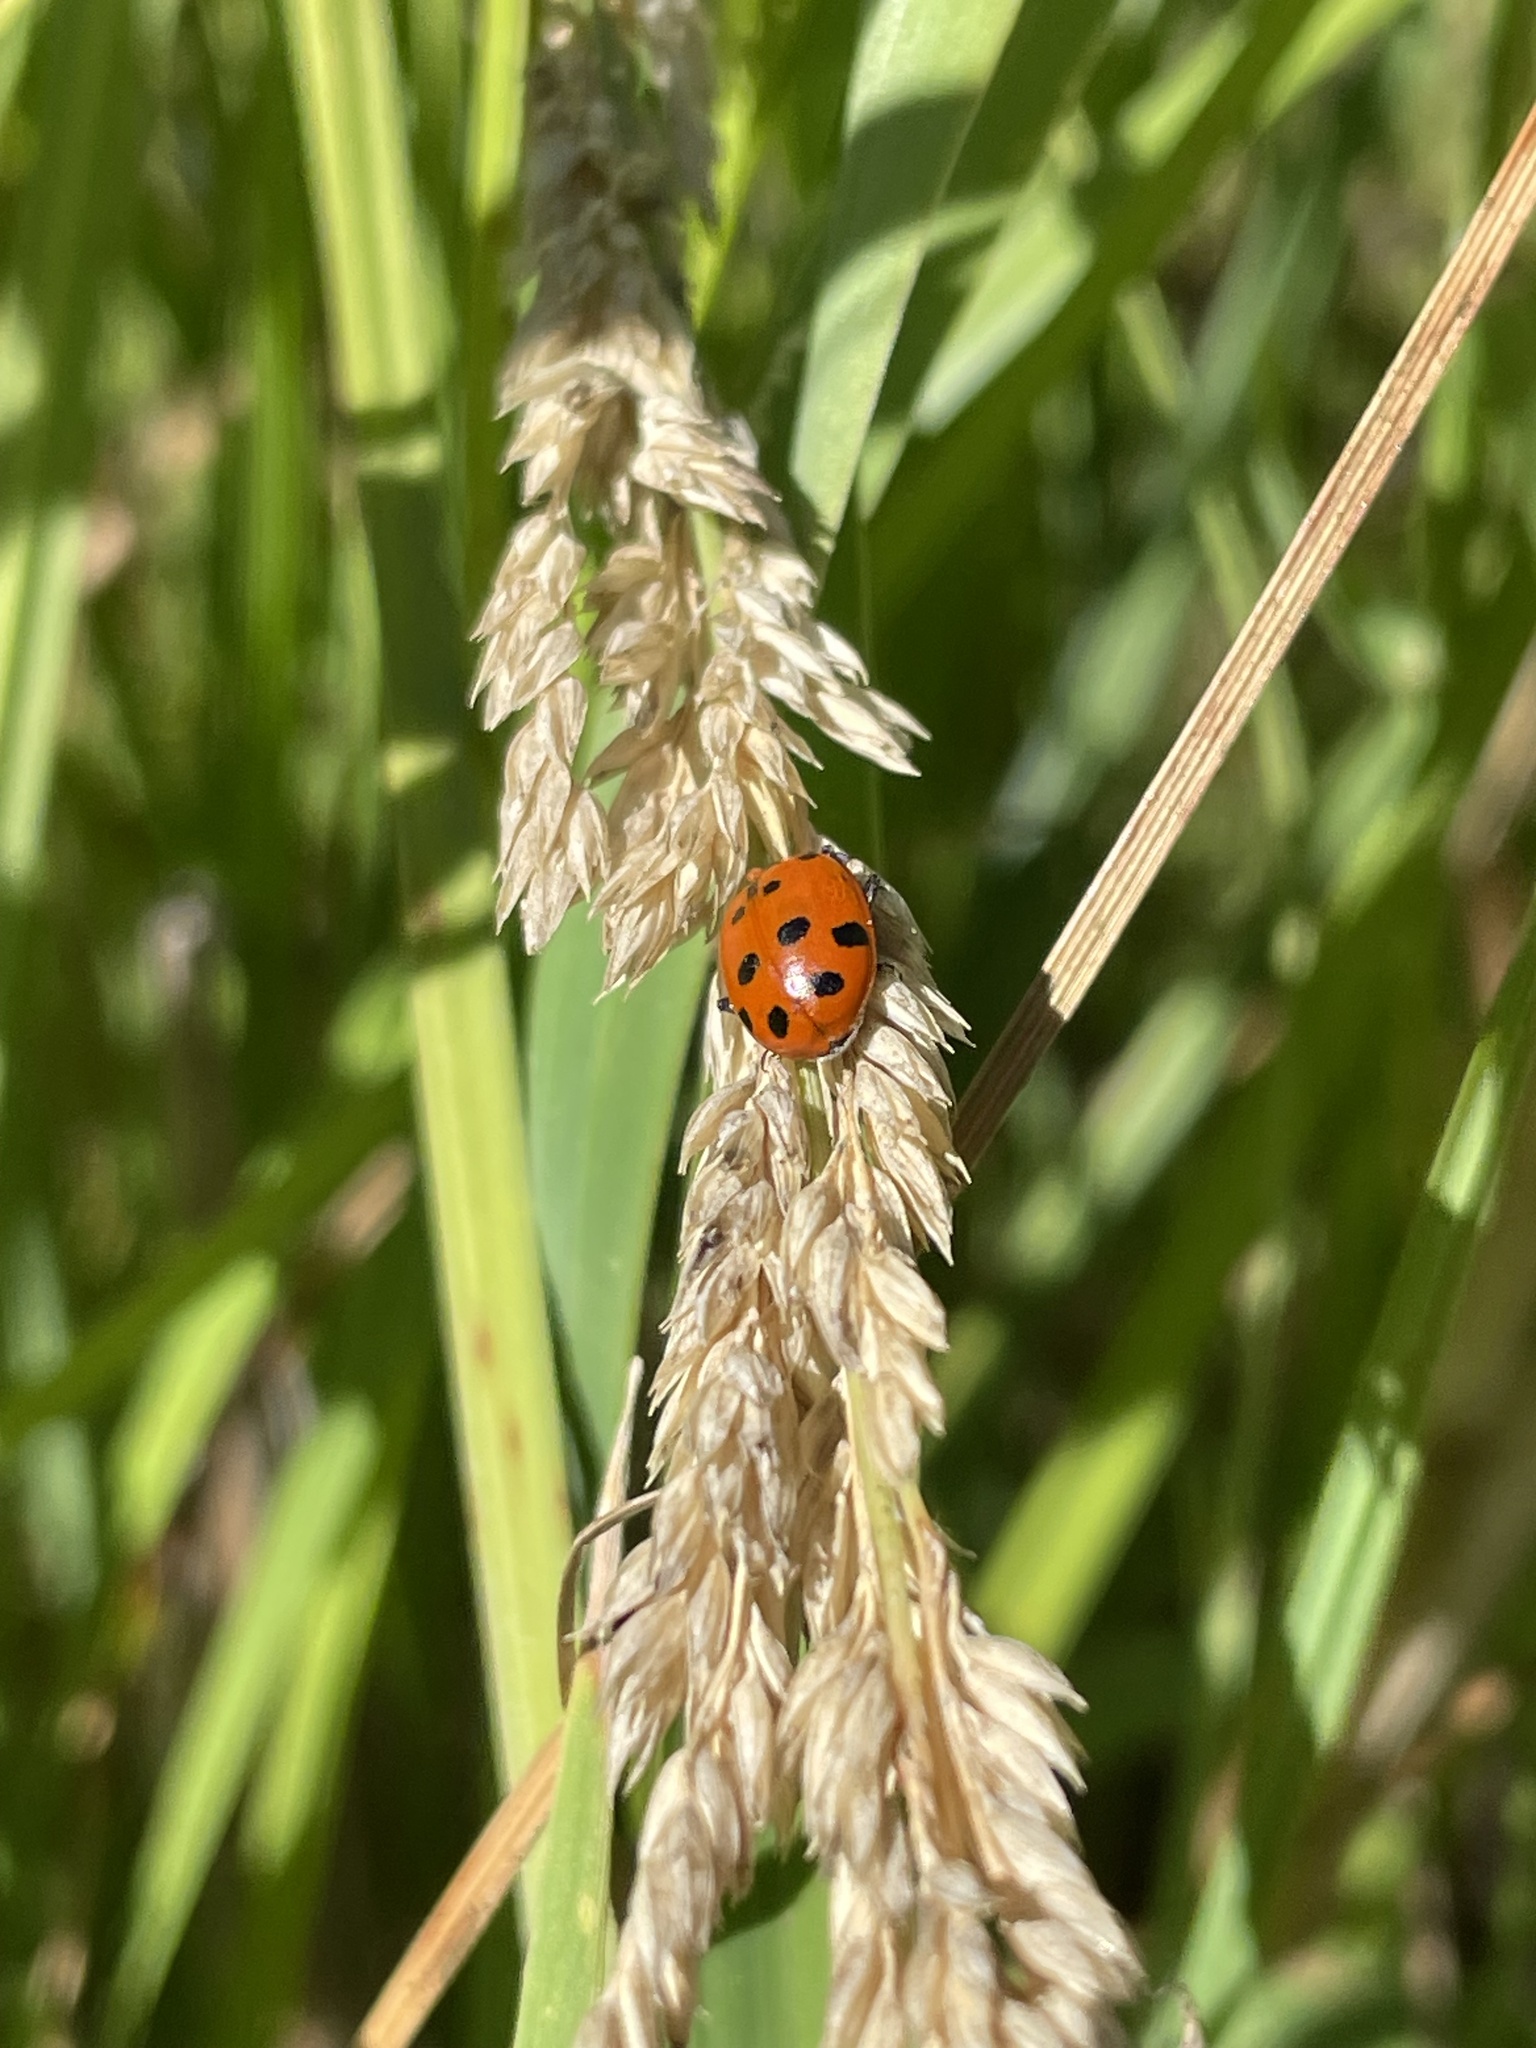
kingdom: Animalia
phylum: Arthropoda
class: Insecta
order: Coleoptera
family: Coccinellidae
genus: Hippodamia
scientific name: Hippodamia convergens
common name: Convergent lady beetle
